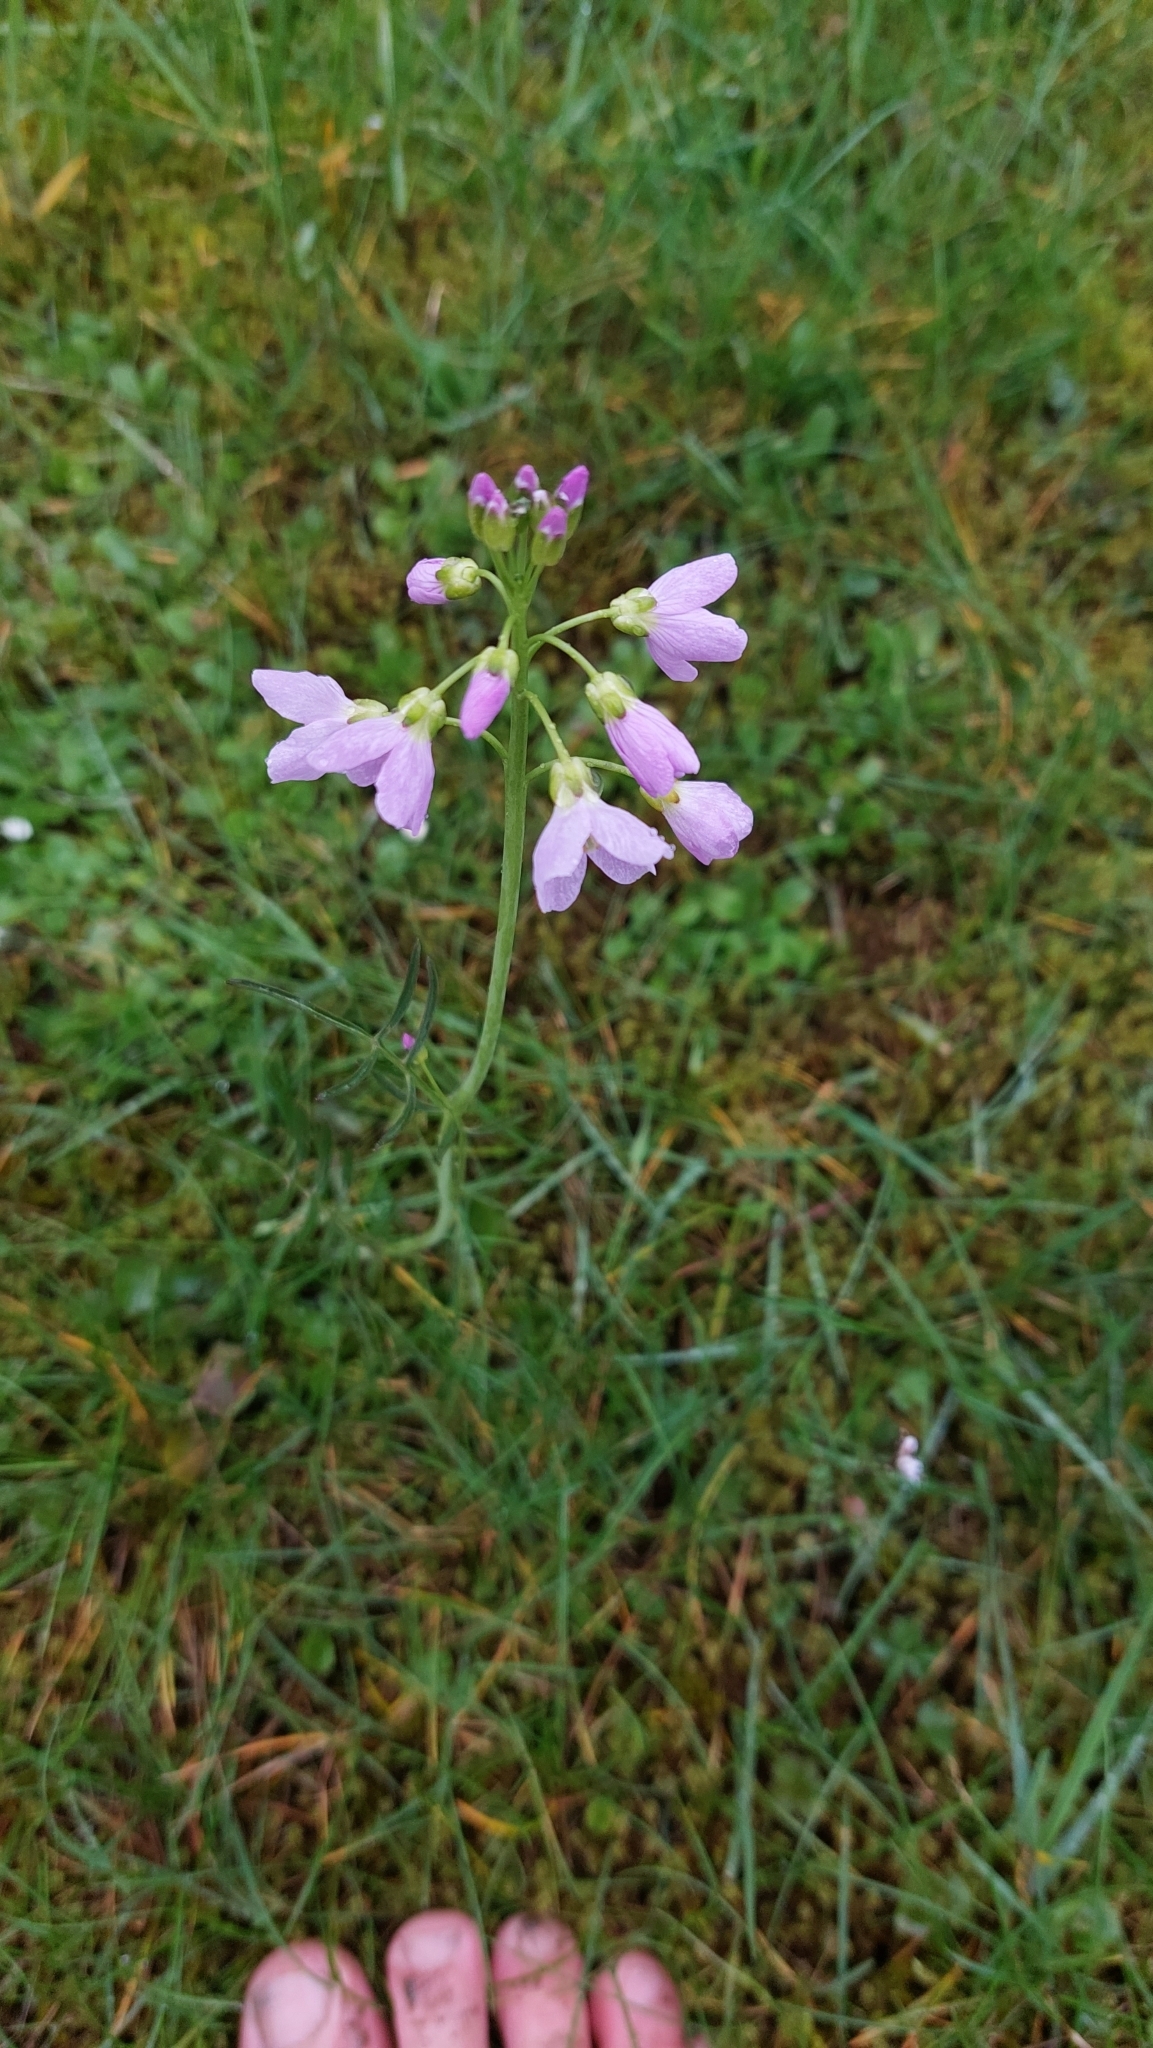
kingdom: Plantae
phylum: Tracheophyta
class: Magnoliopsida
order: Brassicales
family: Brassicaceae
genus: Cardamine
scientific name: Cardamine pratensis
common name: Cuckoo flower
